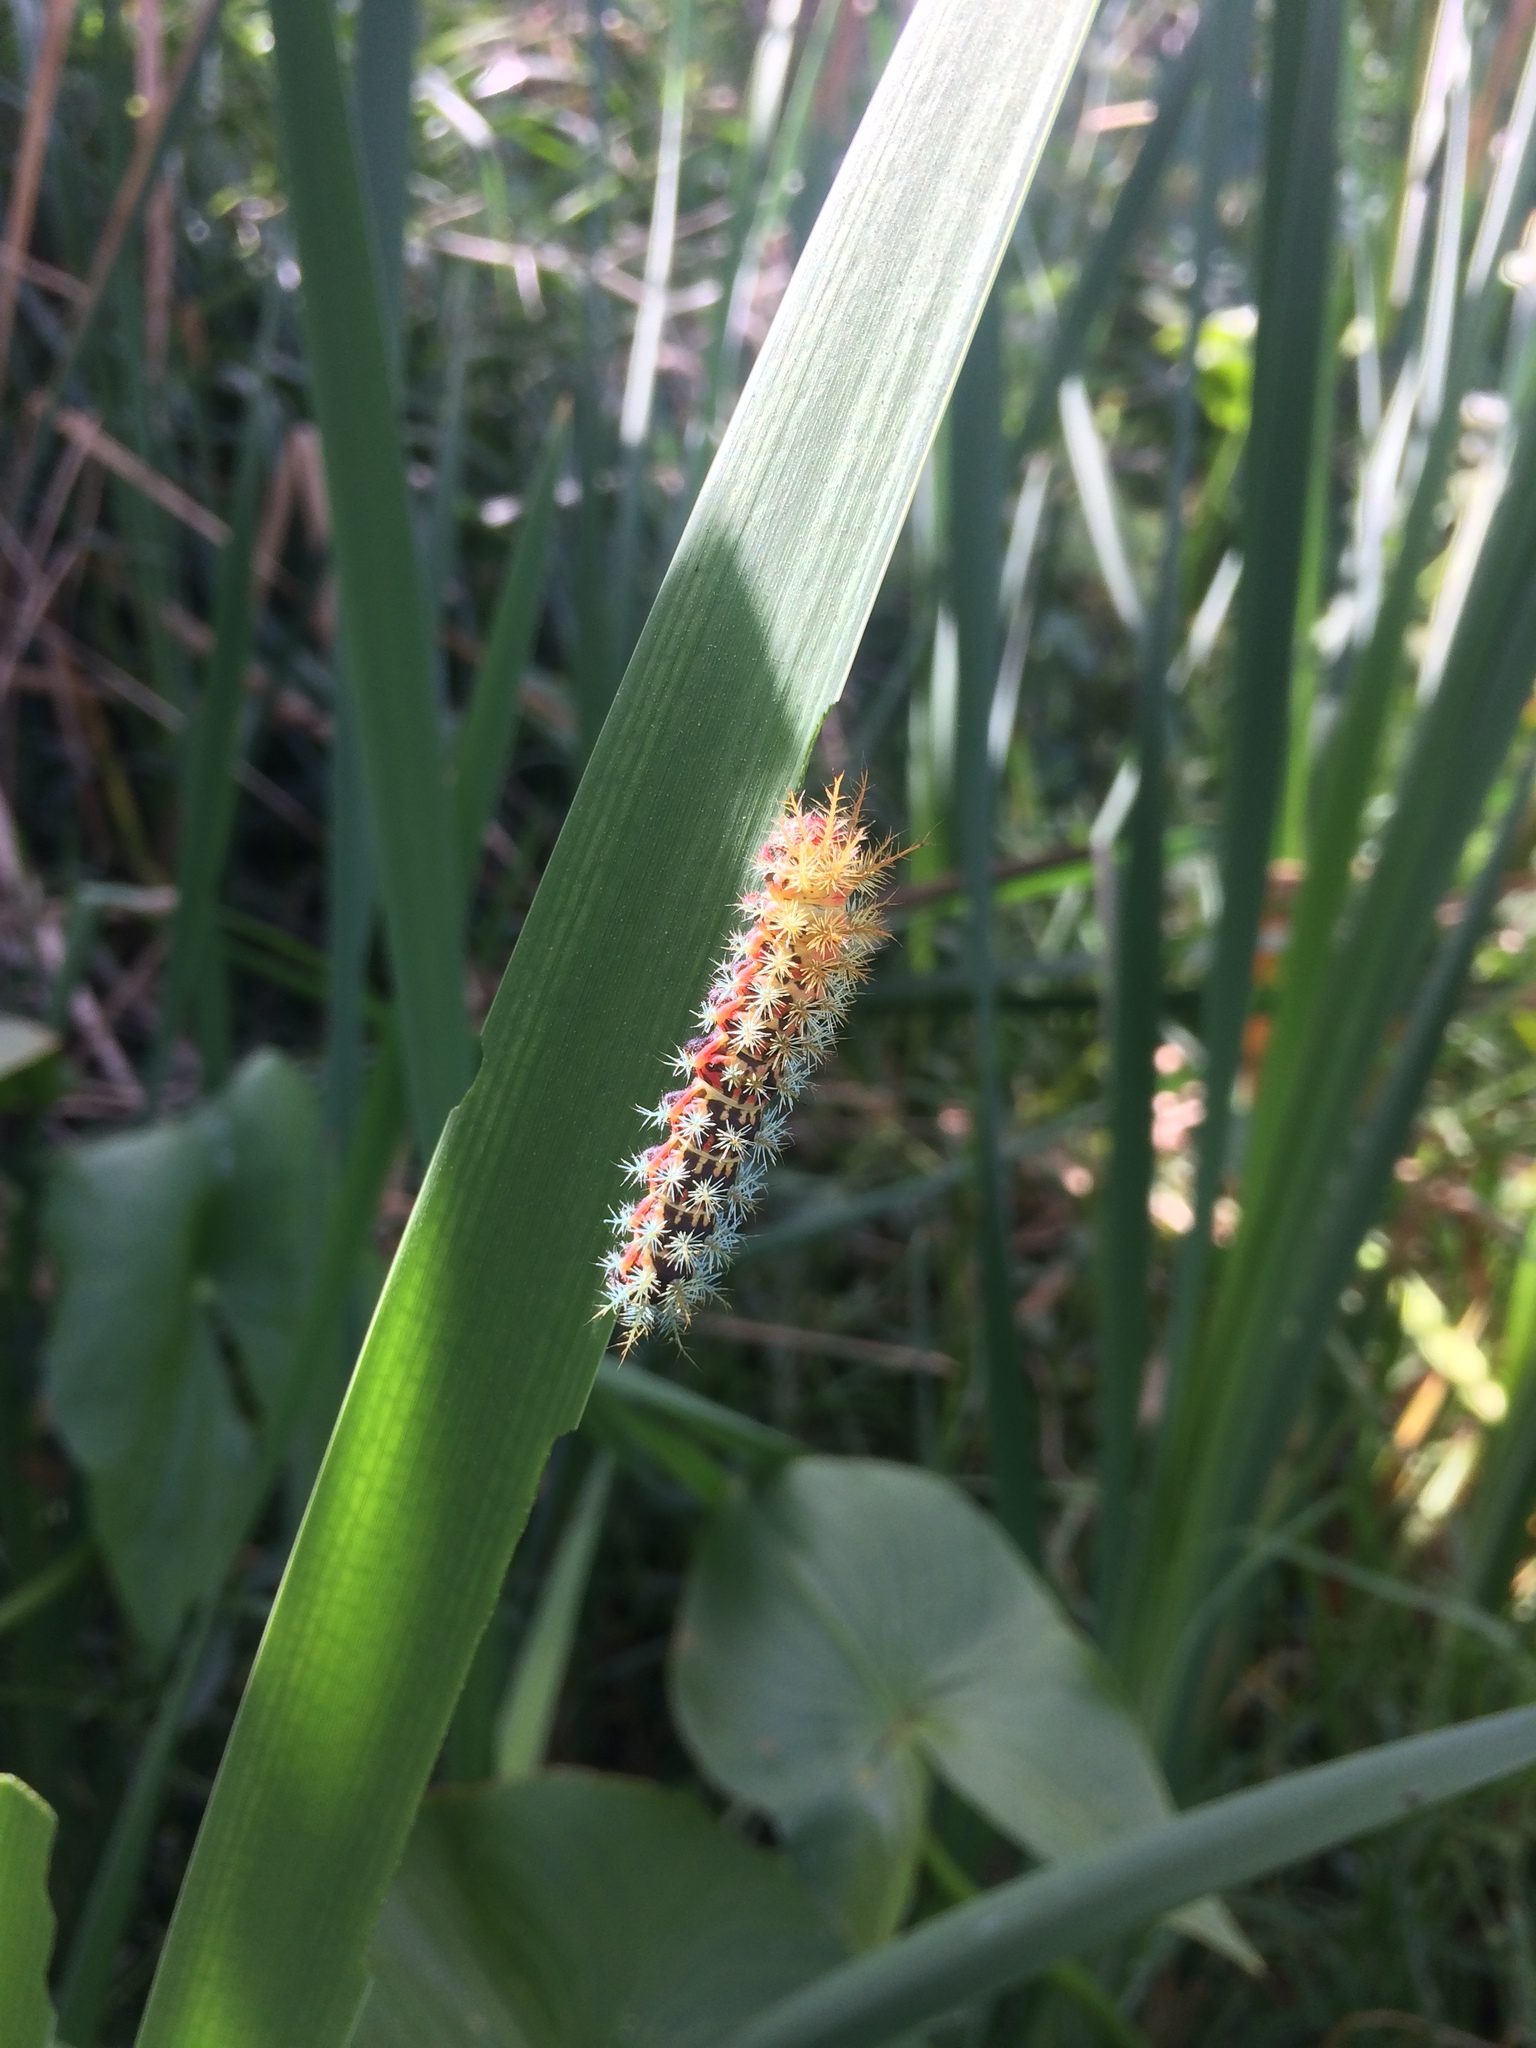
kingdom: Animalia
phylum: Arthropoda
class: Insecta
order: Lepidoptera
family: Saturniidae
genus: Pseudautomeris
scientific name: Pseudautomeris grammivora
